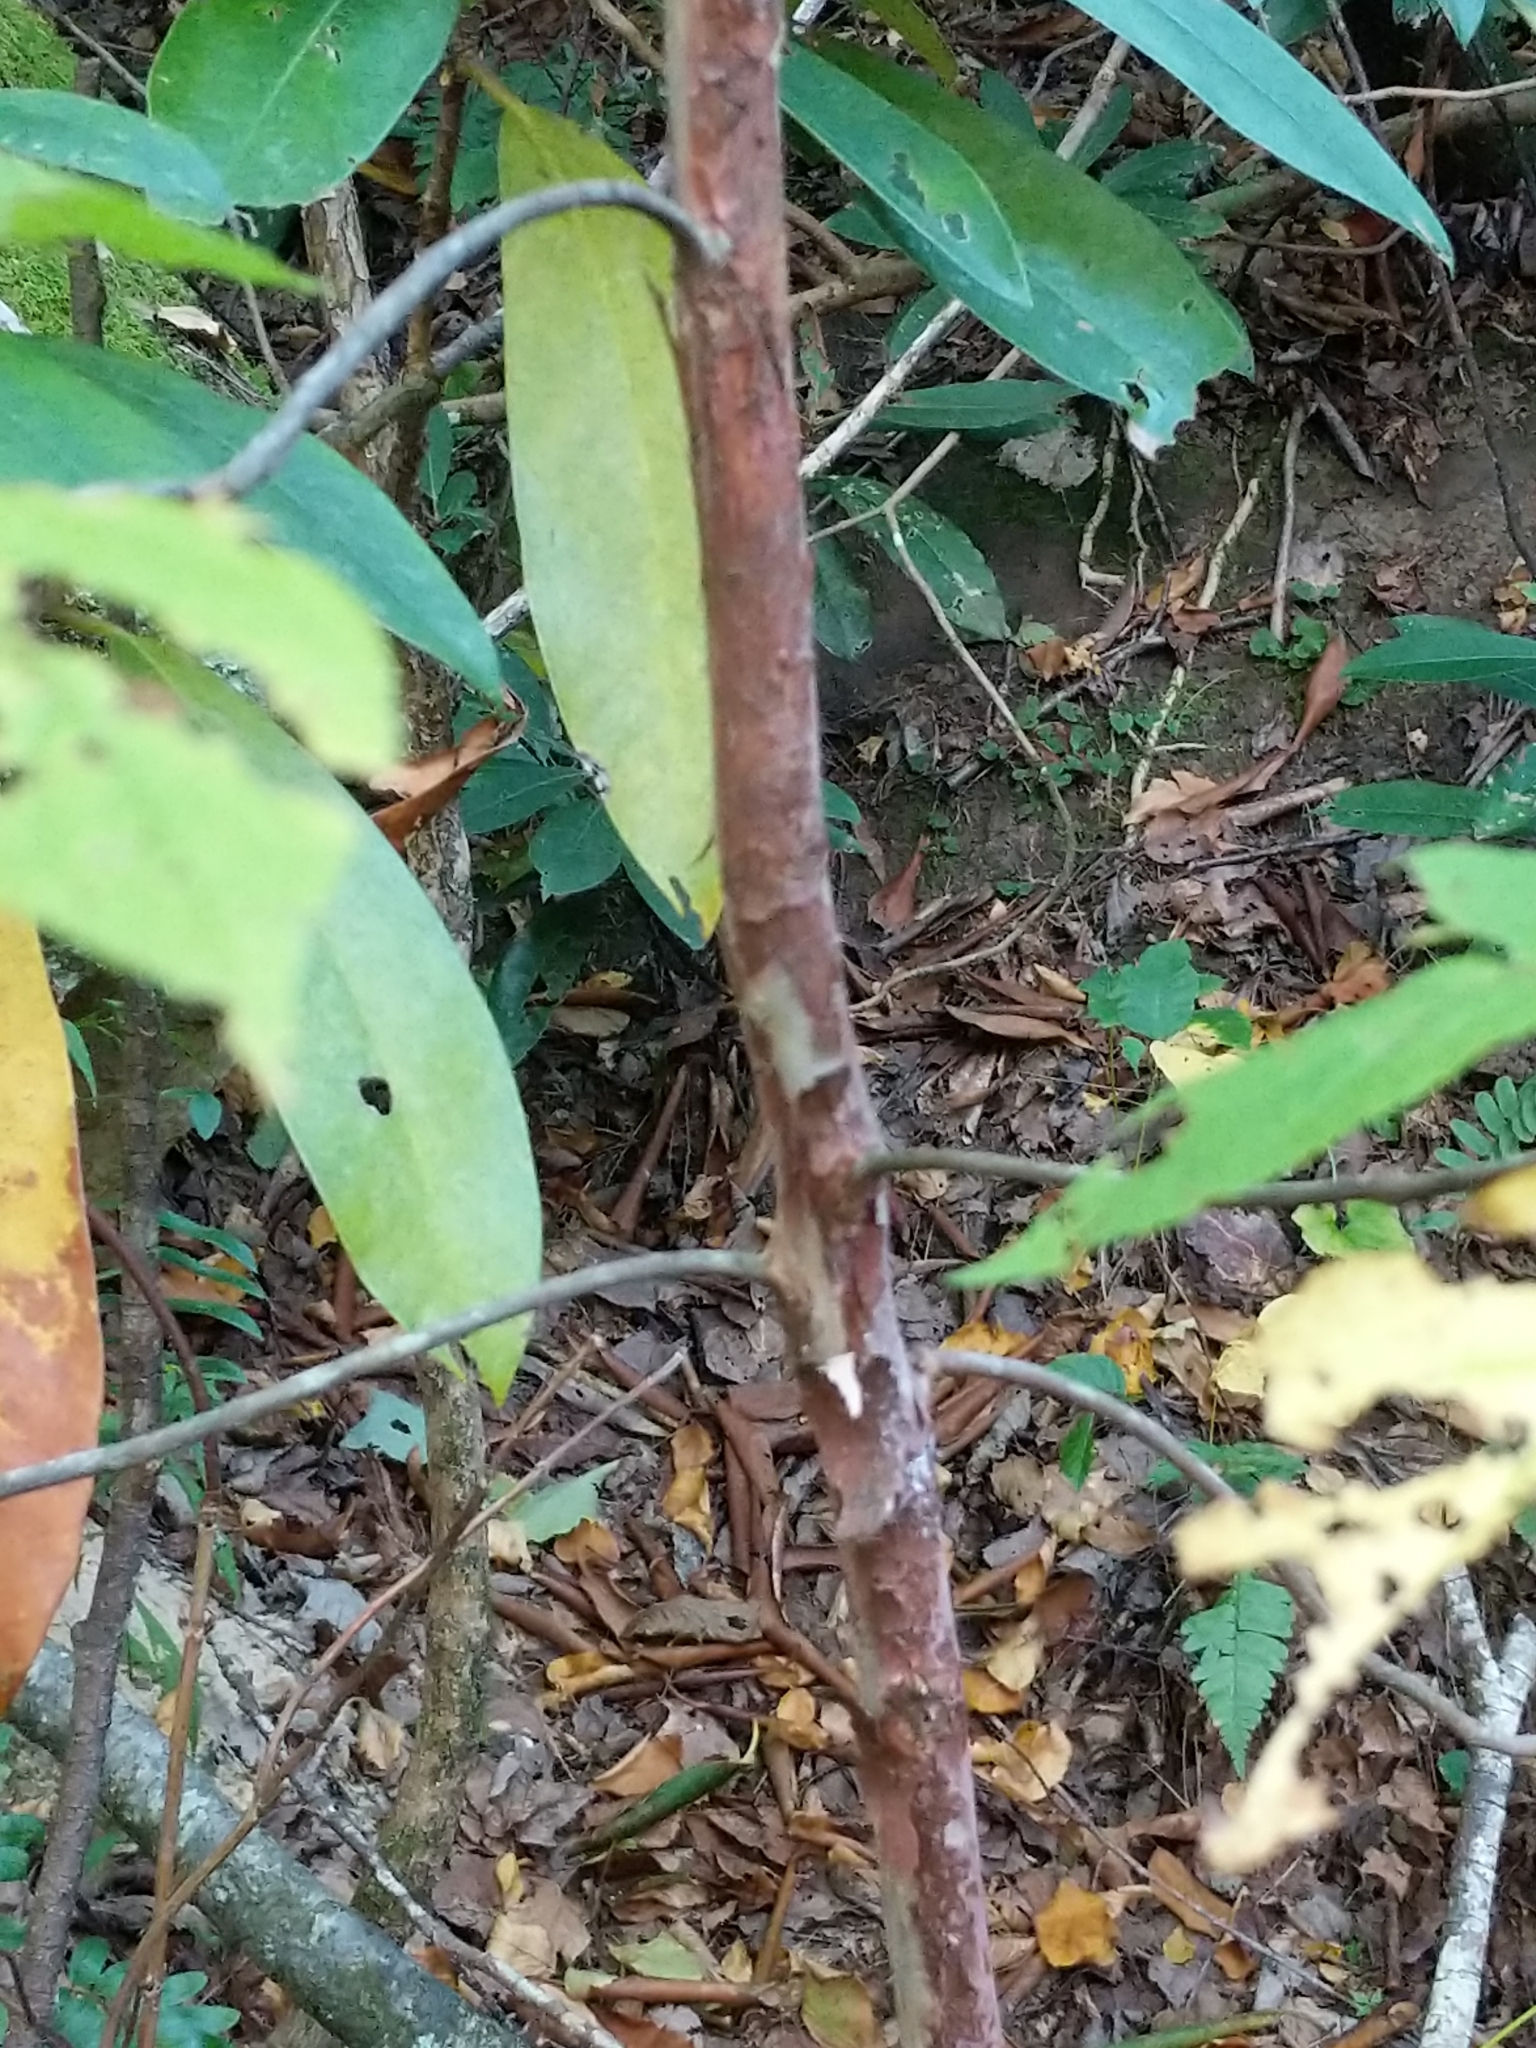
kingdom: Plantae
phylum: Tracheophyta
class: Magnoliopsida
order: Ericales
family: Clethraceae
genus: Clethra
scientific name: Clethra acuminata
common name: Mountain sweet pepperbush
